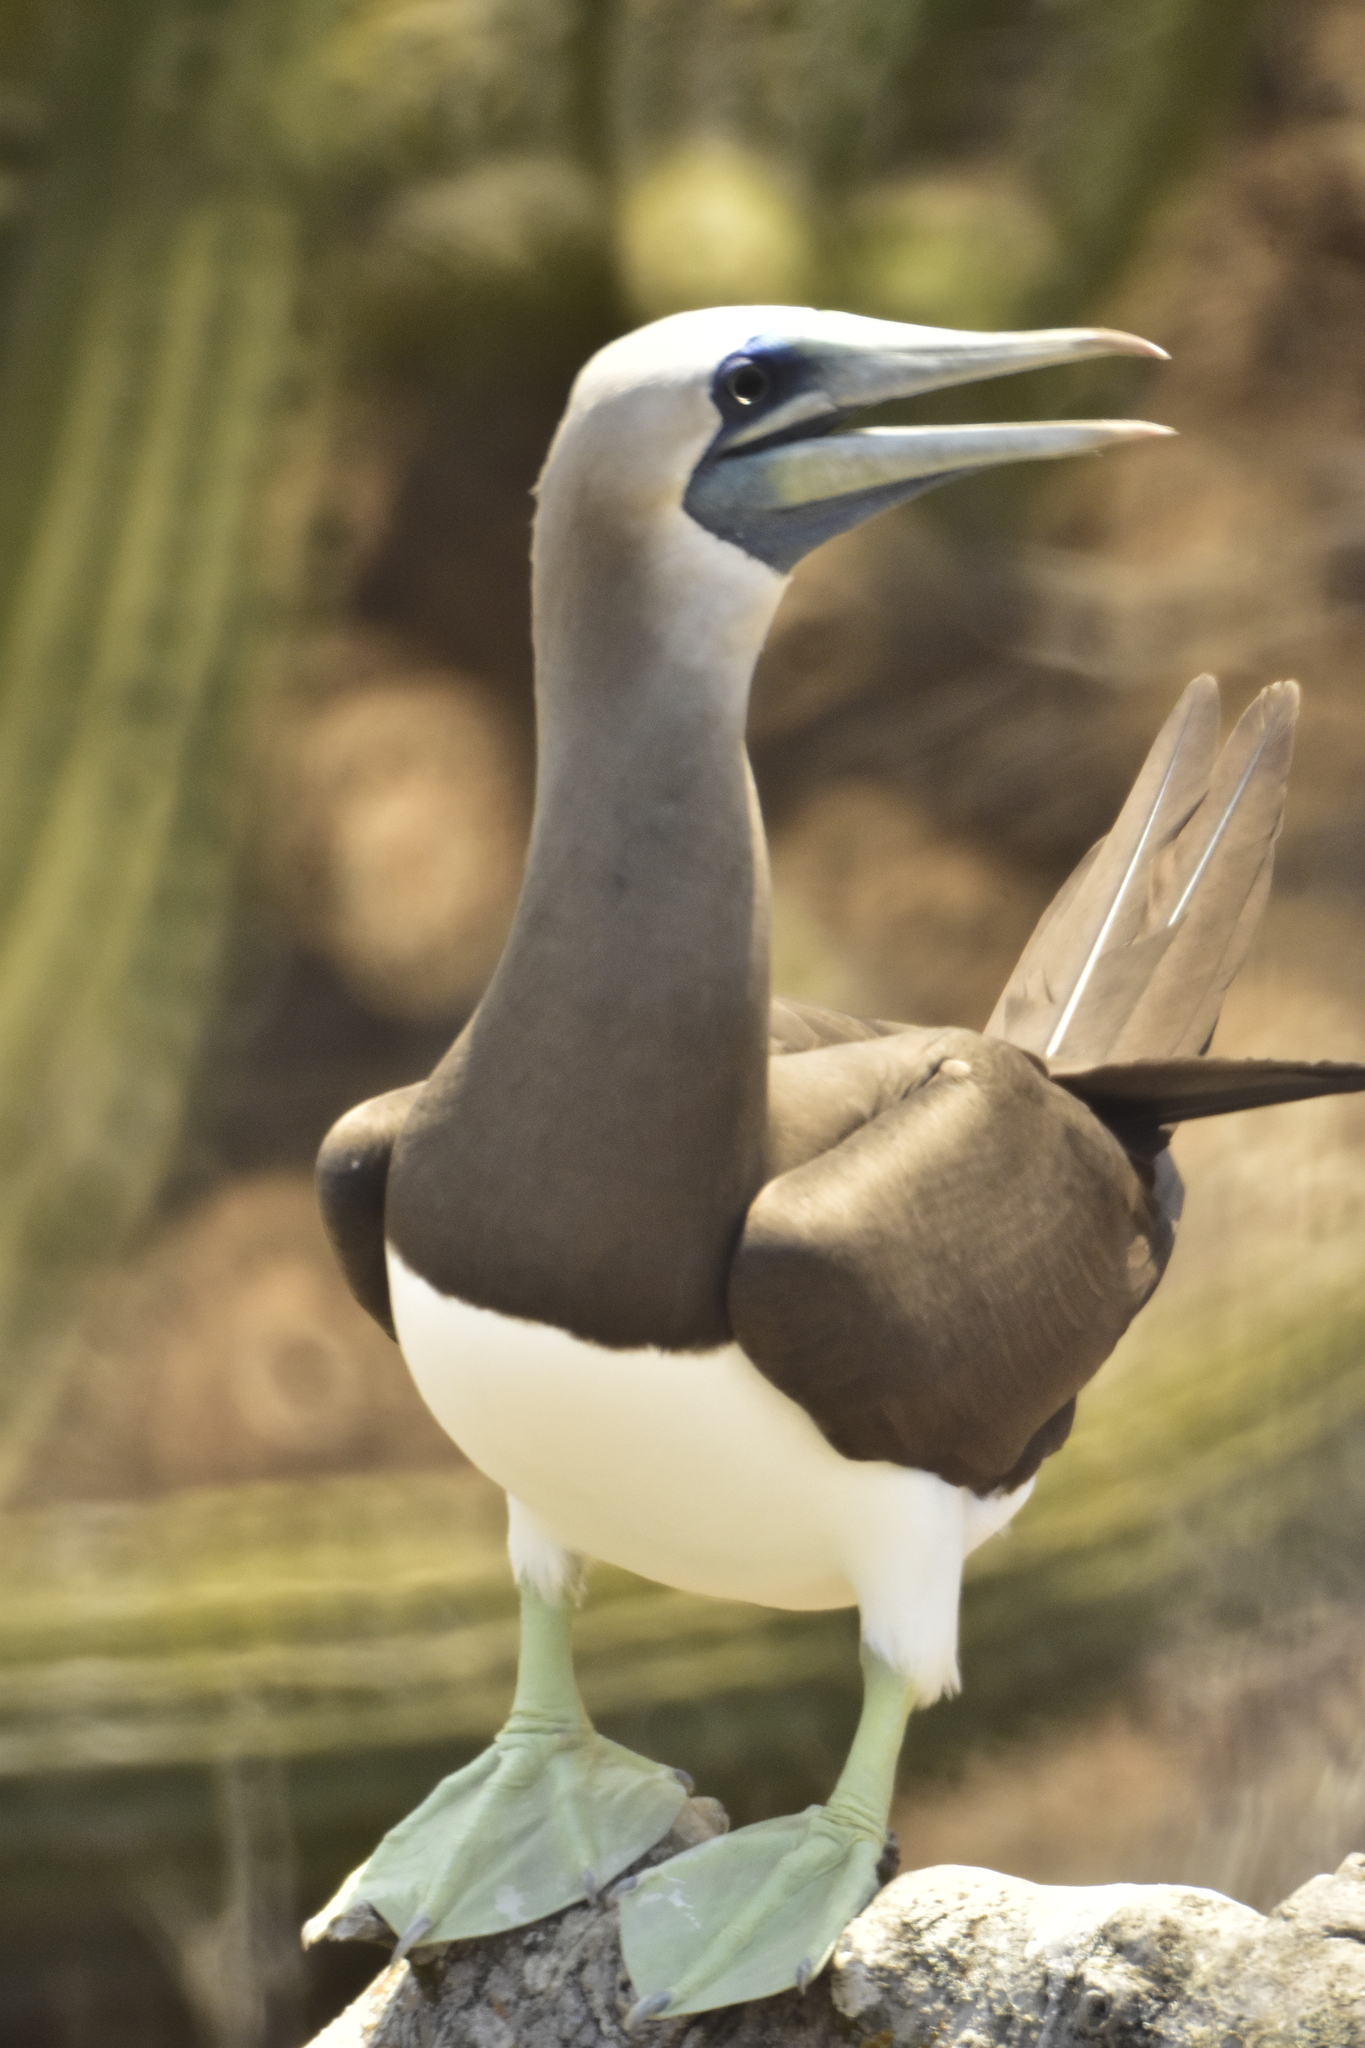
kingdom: Animalia
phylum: Chordata
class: Aves
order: Suliformes
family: Sulidae
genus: Sula
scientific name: Sula leucogaster
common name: Brown booby
